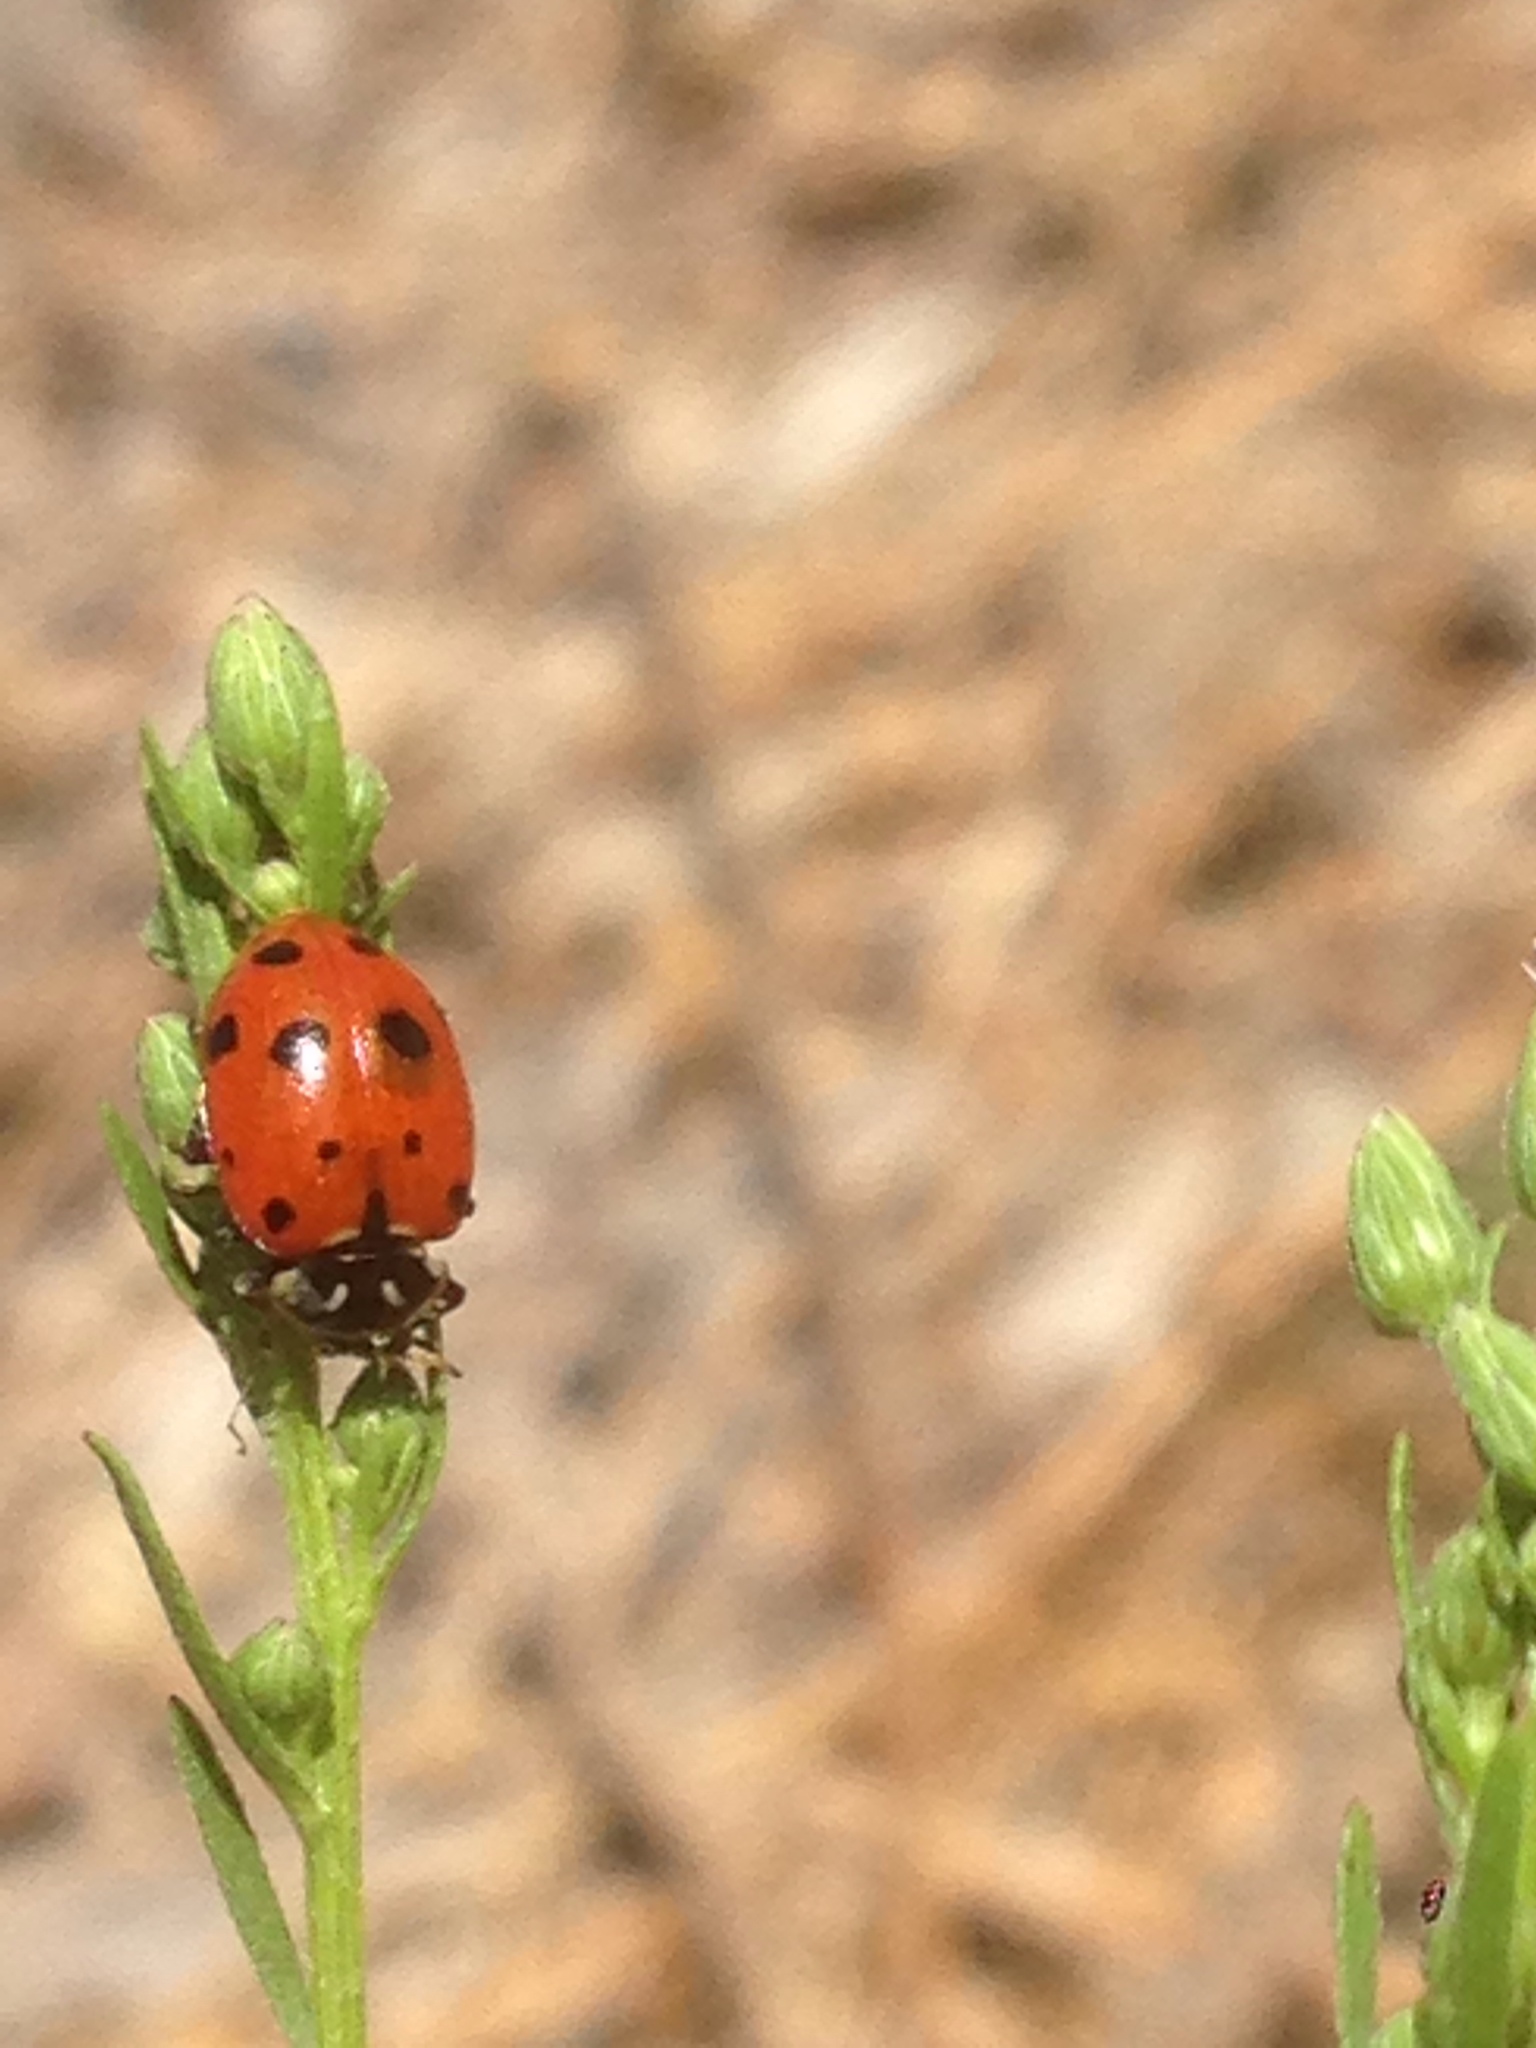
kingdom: Animalia
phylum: Arthropoda
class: Insecta
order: Coleoptera
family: Coccinellidae
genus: Hippodamia
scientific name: Hippodamia convergens
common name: Convergent lady beetle
